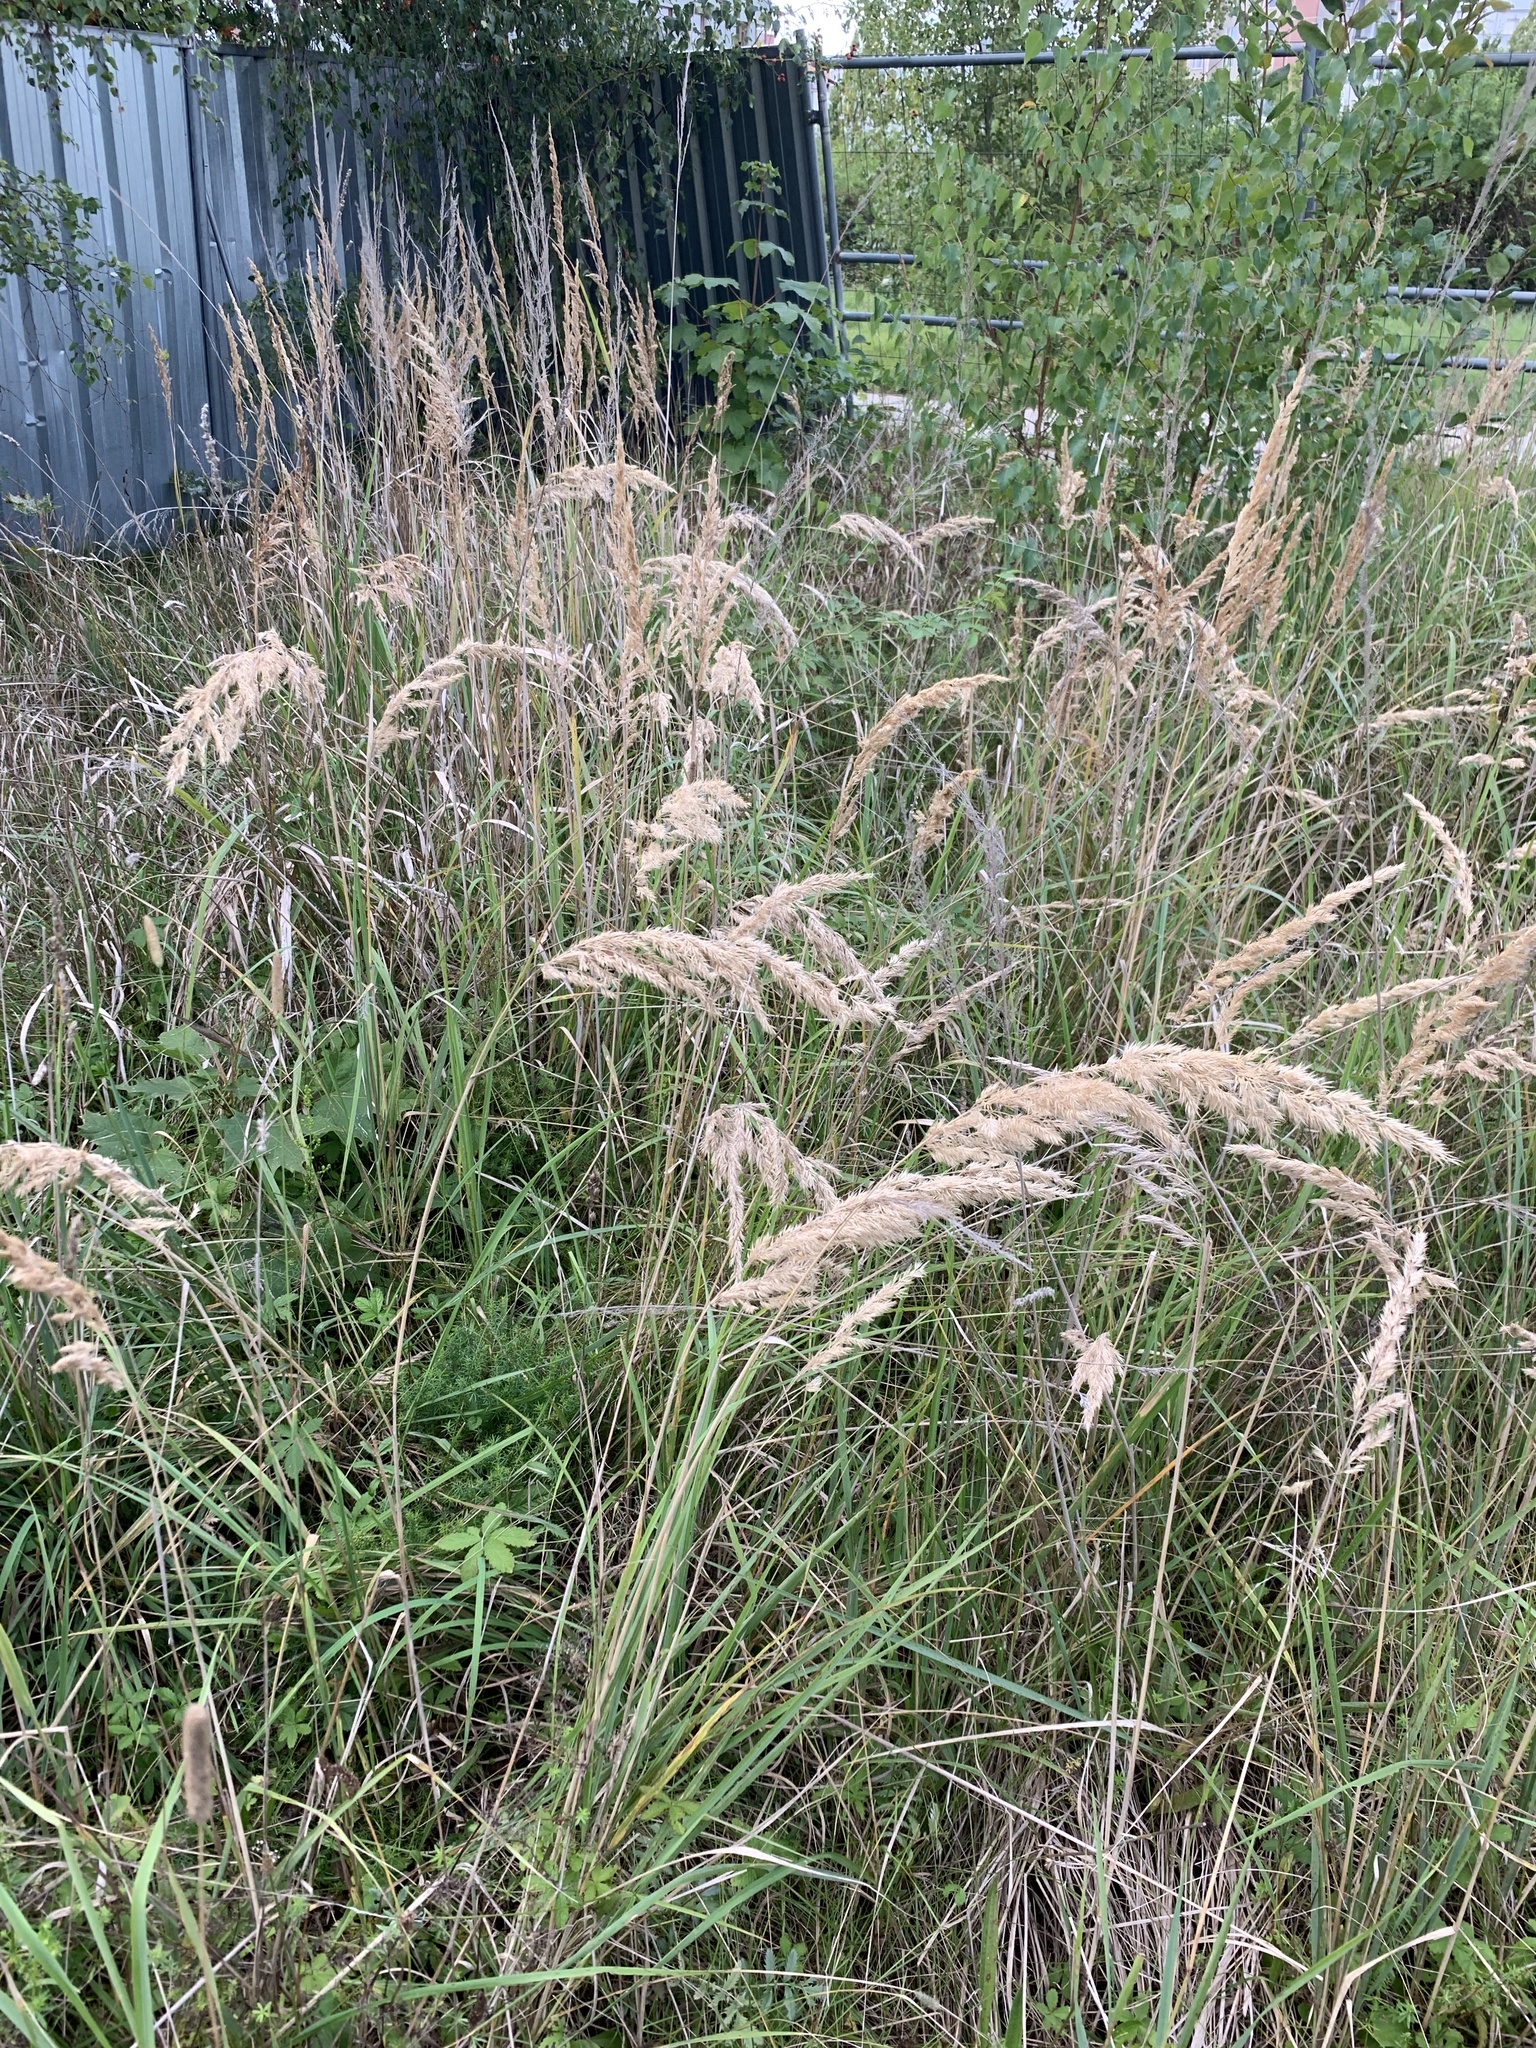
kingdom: Plantae
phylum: Tracheophyta
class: Liliopsida
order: Poales
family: Poaceae
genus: Calamagrostis
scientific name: Calamagrostis epigejos
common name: Wood small-reed
